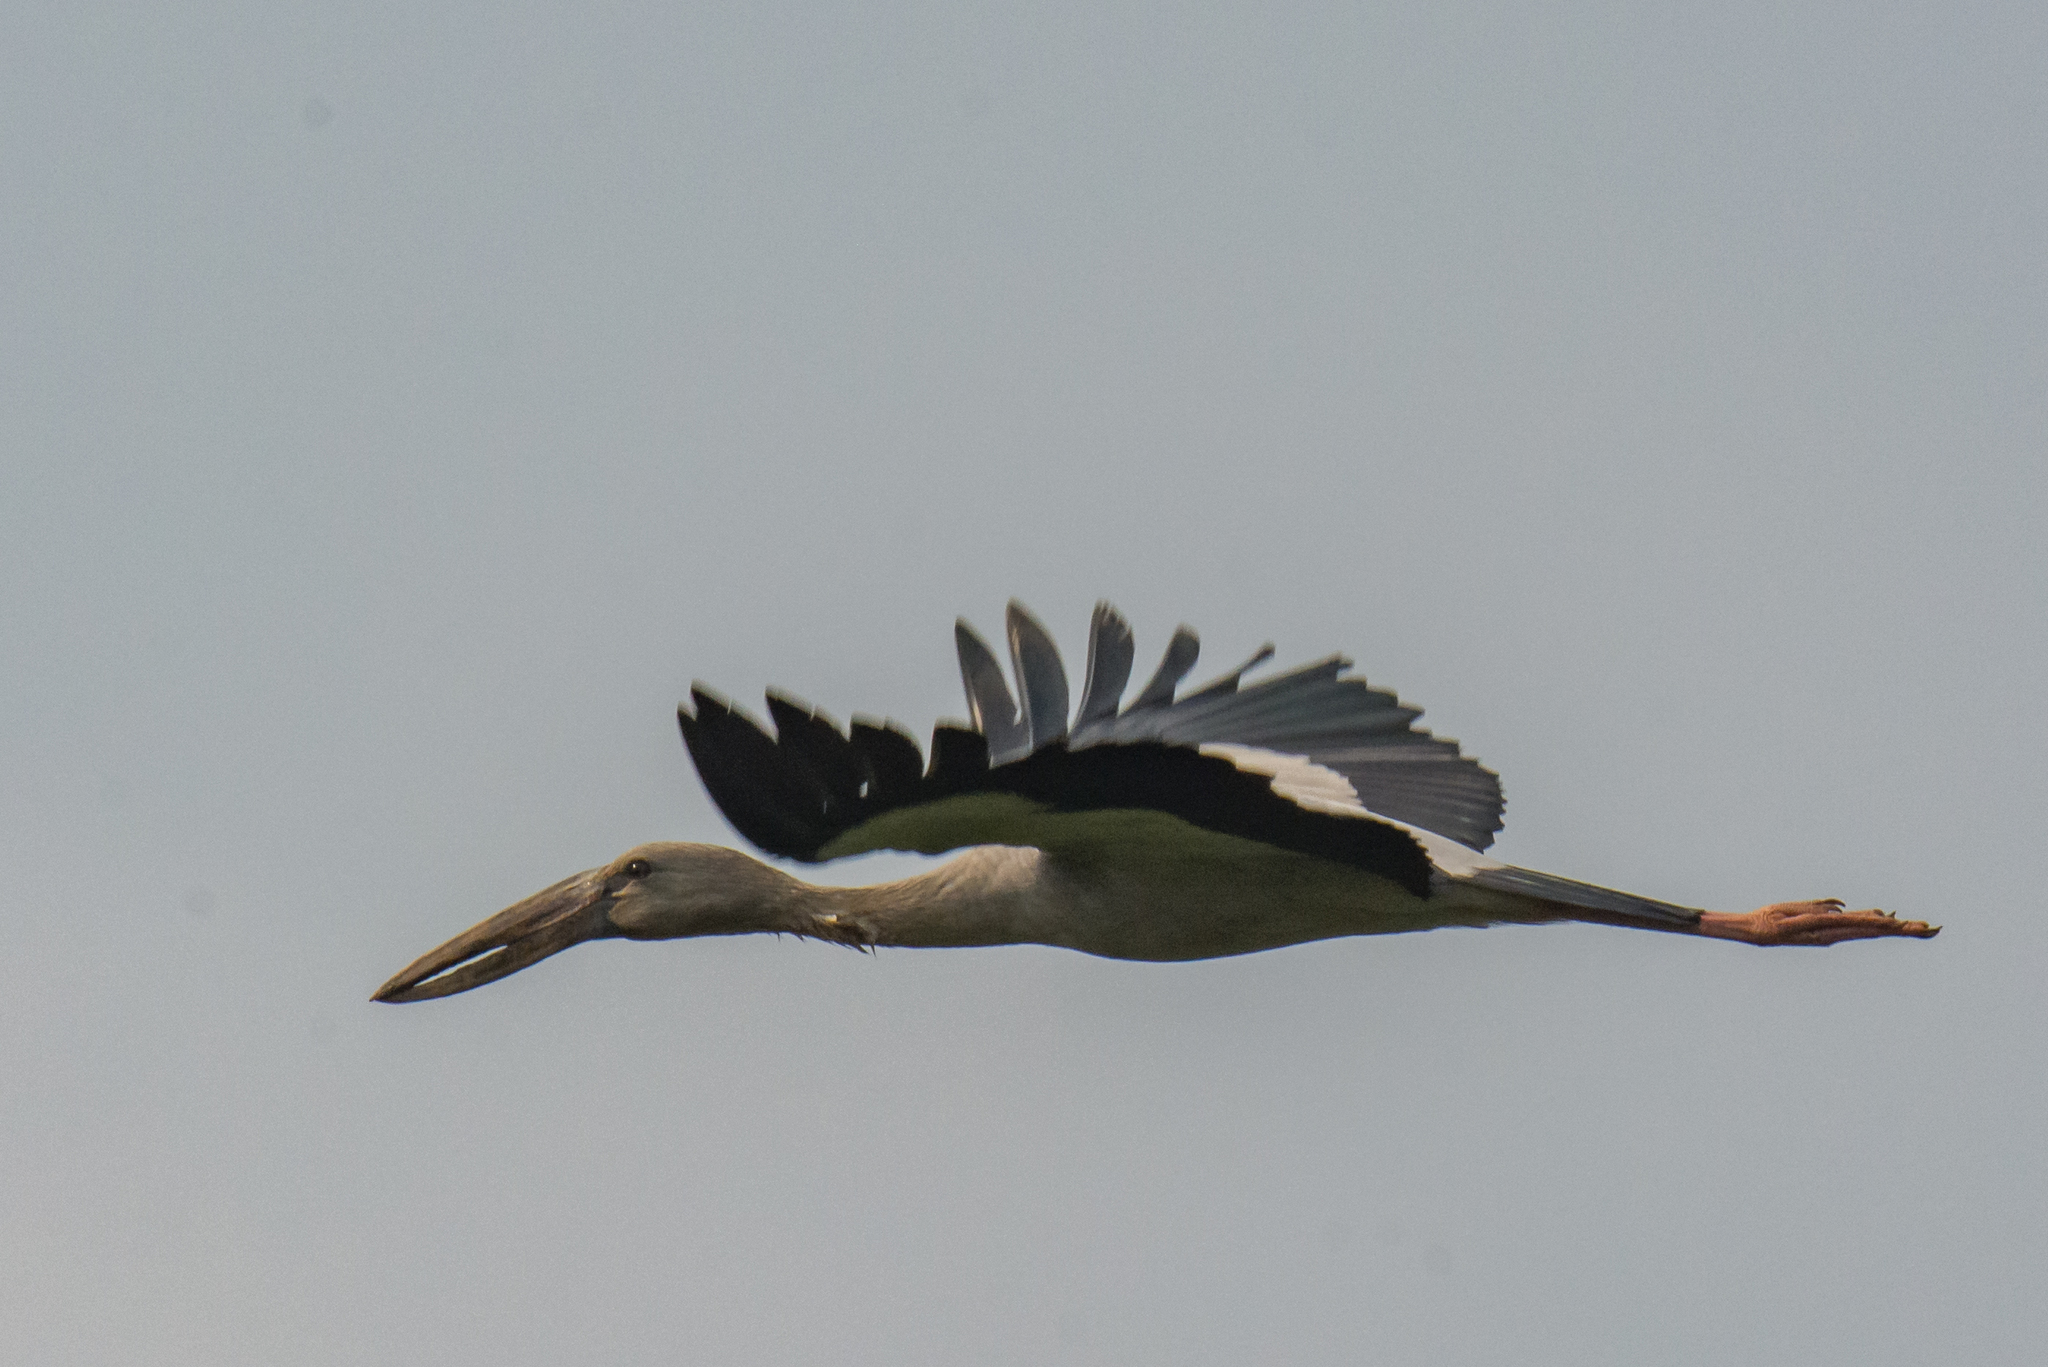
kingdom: Animalia
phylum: Chordata
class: Aves
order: Ciconiiformes
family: Ciconiidae
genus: Anastomus
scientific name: Anastomus oscitans
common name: Asian openbill
